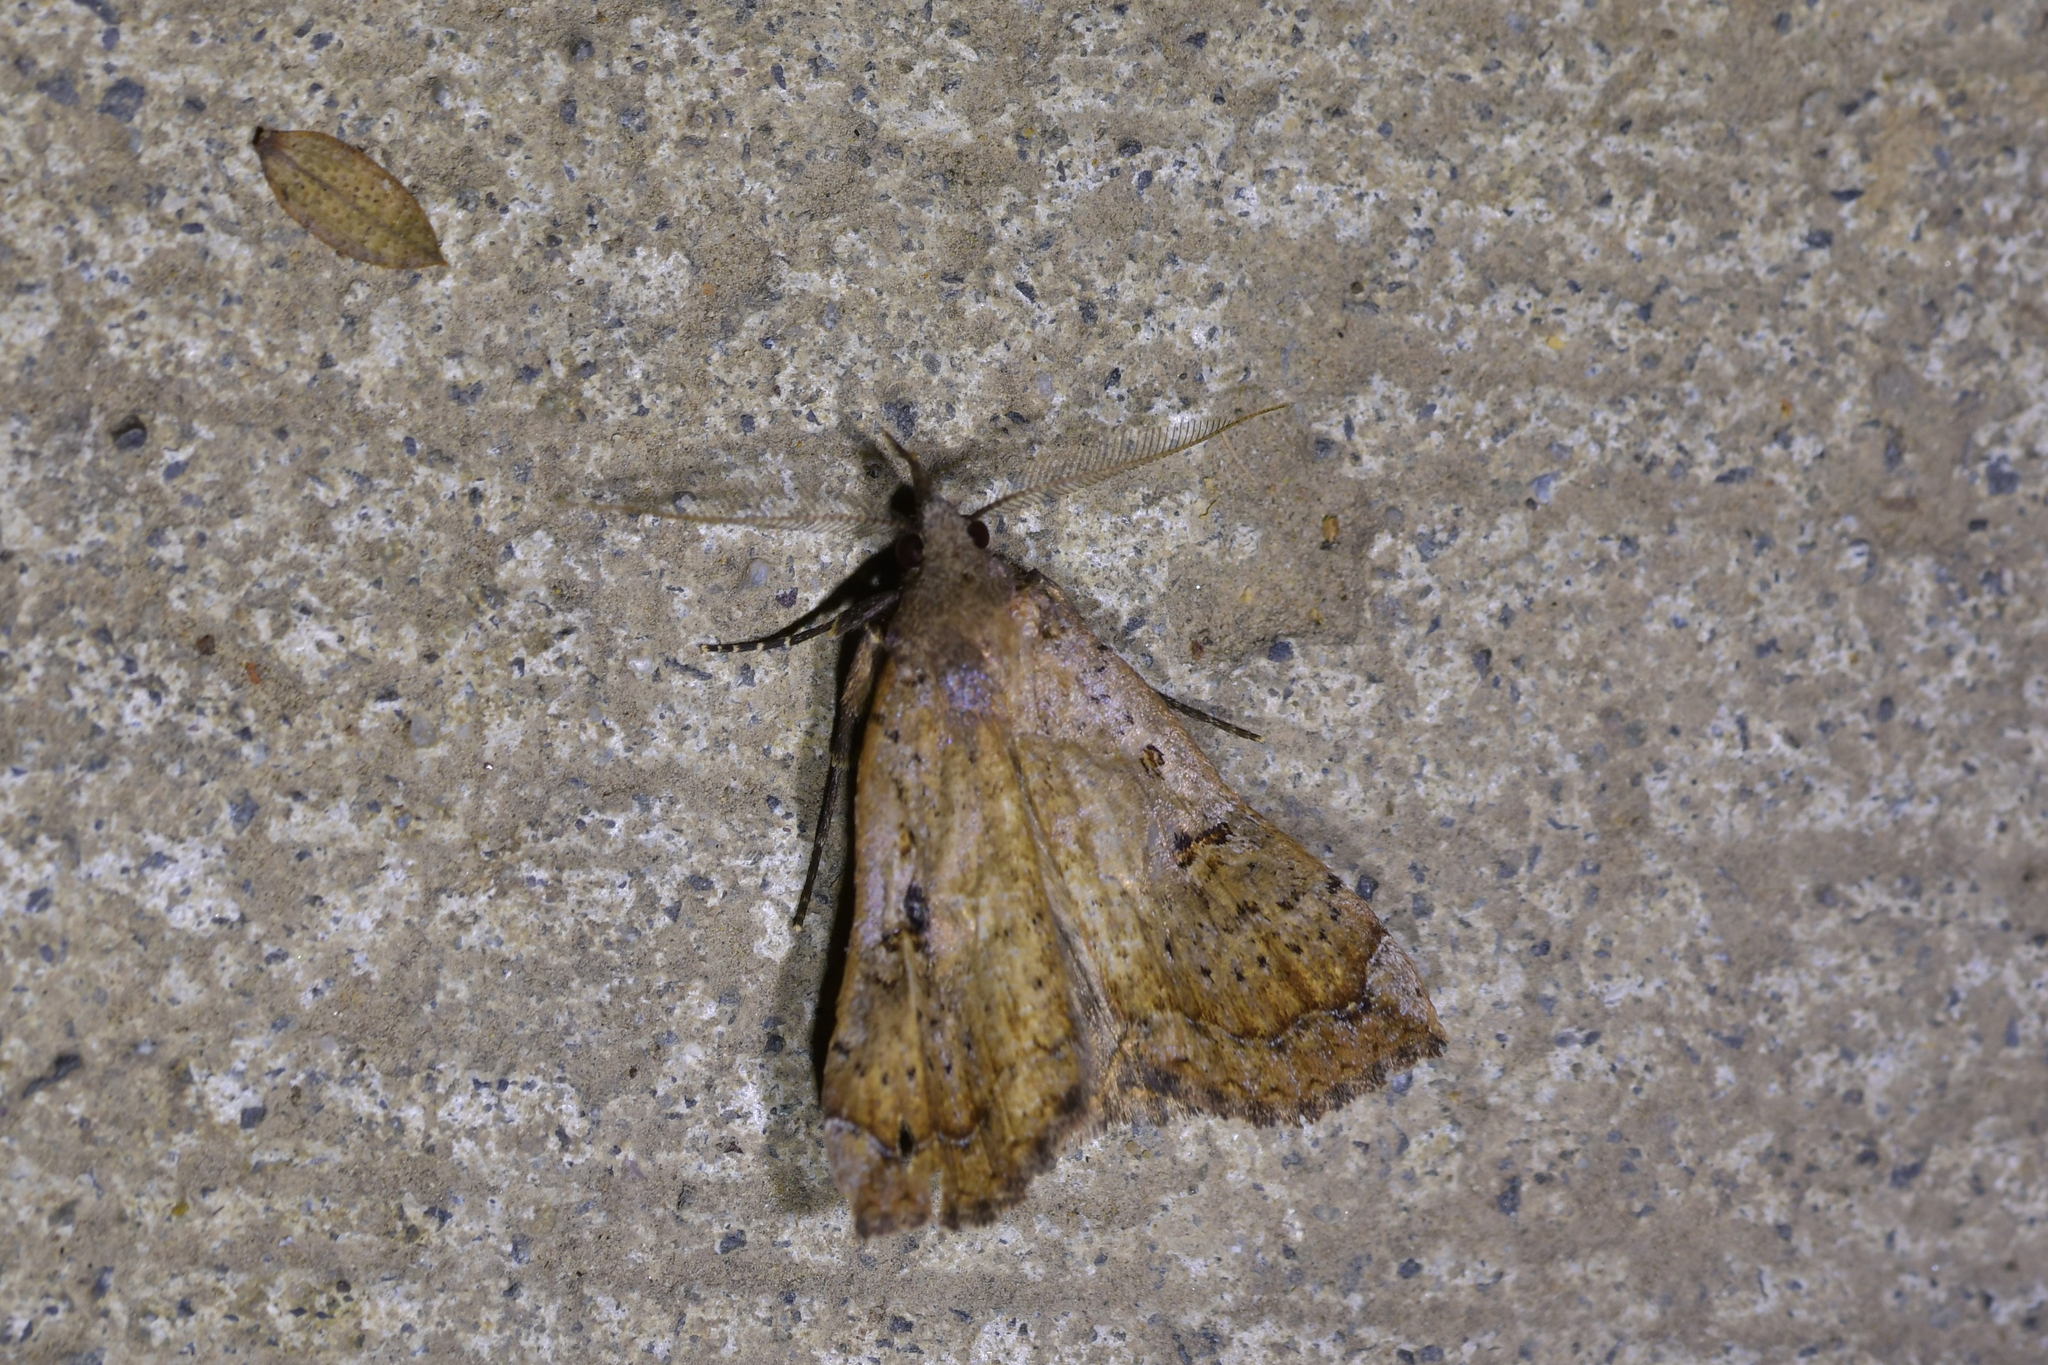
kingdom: Animalia
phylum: Arthropoda
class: Insecta
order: Lepidoptera
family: Erebidae
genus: Rhapsa
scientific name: Rhapsa scotosialis
